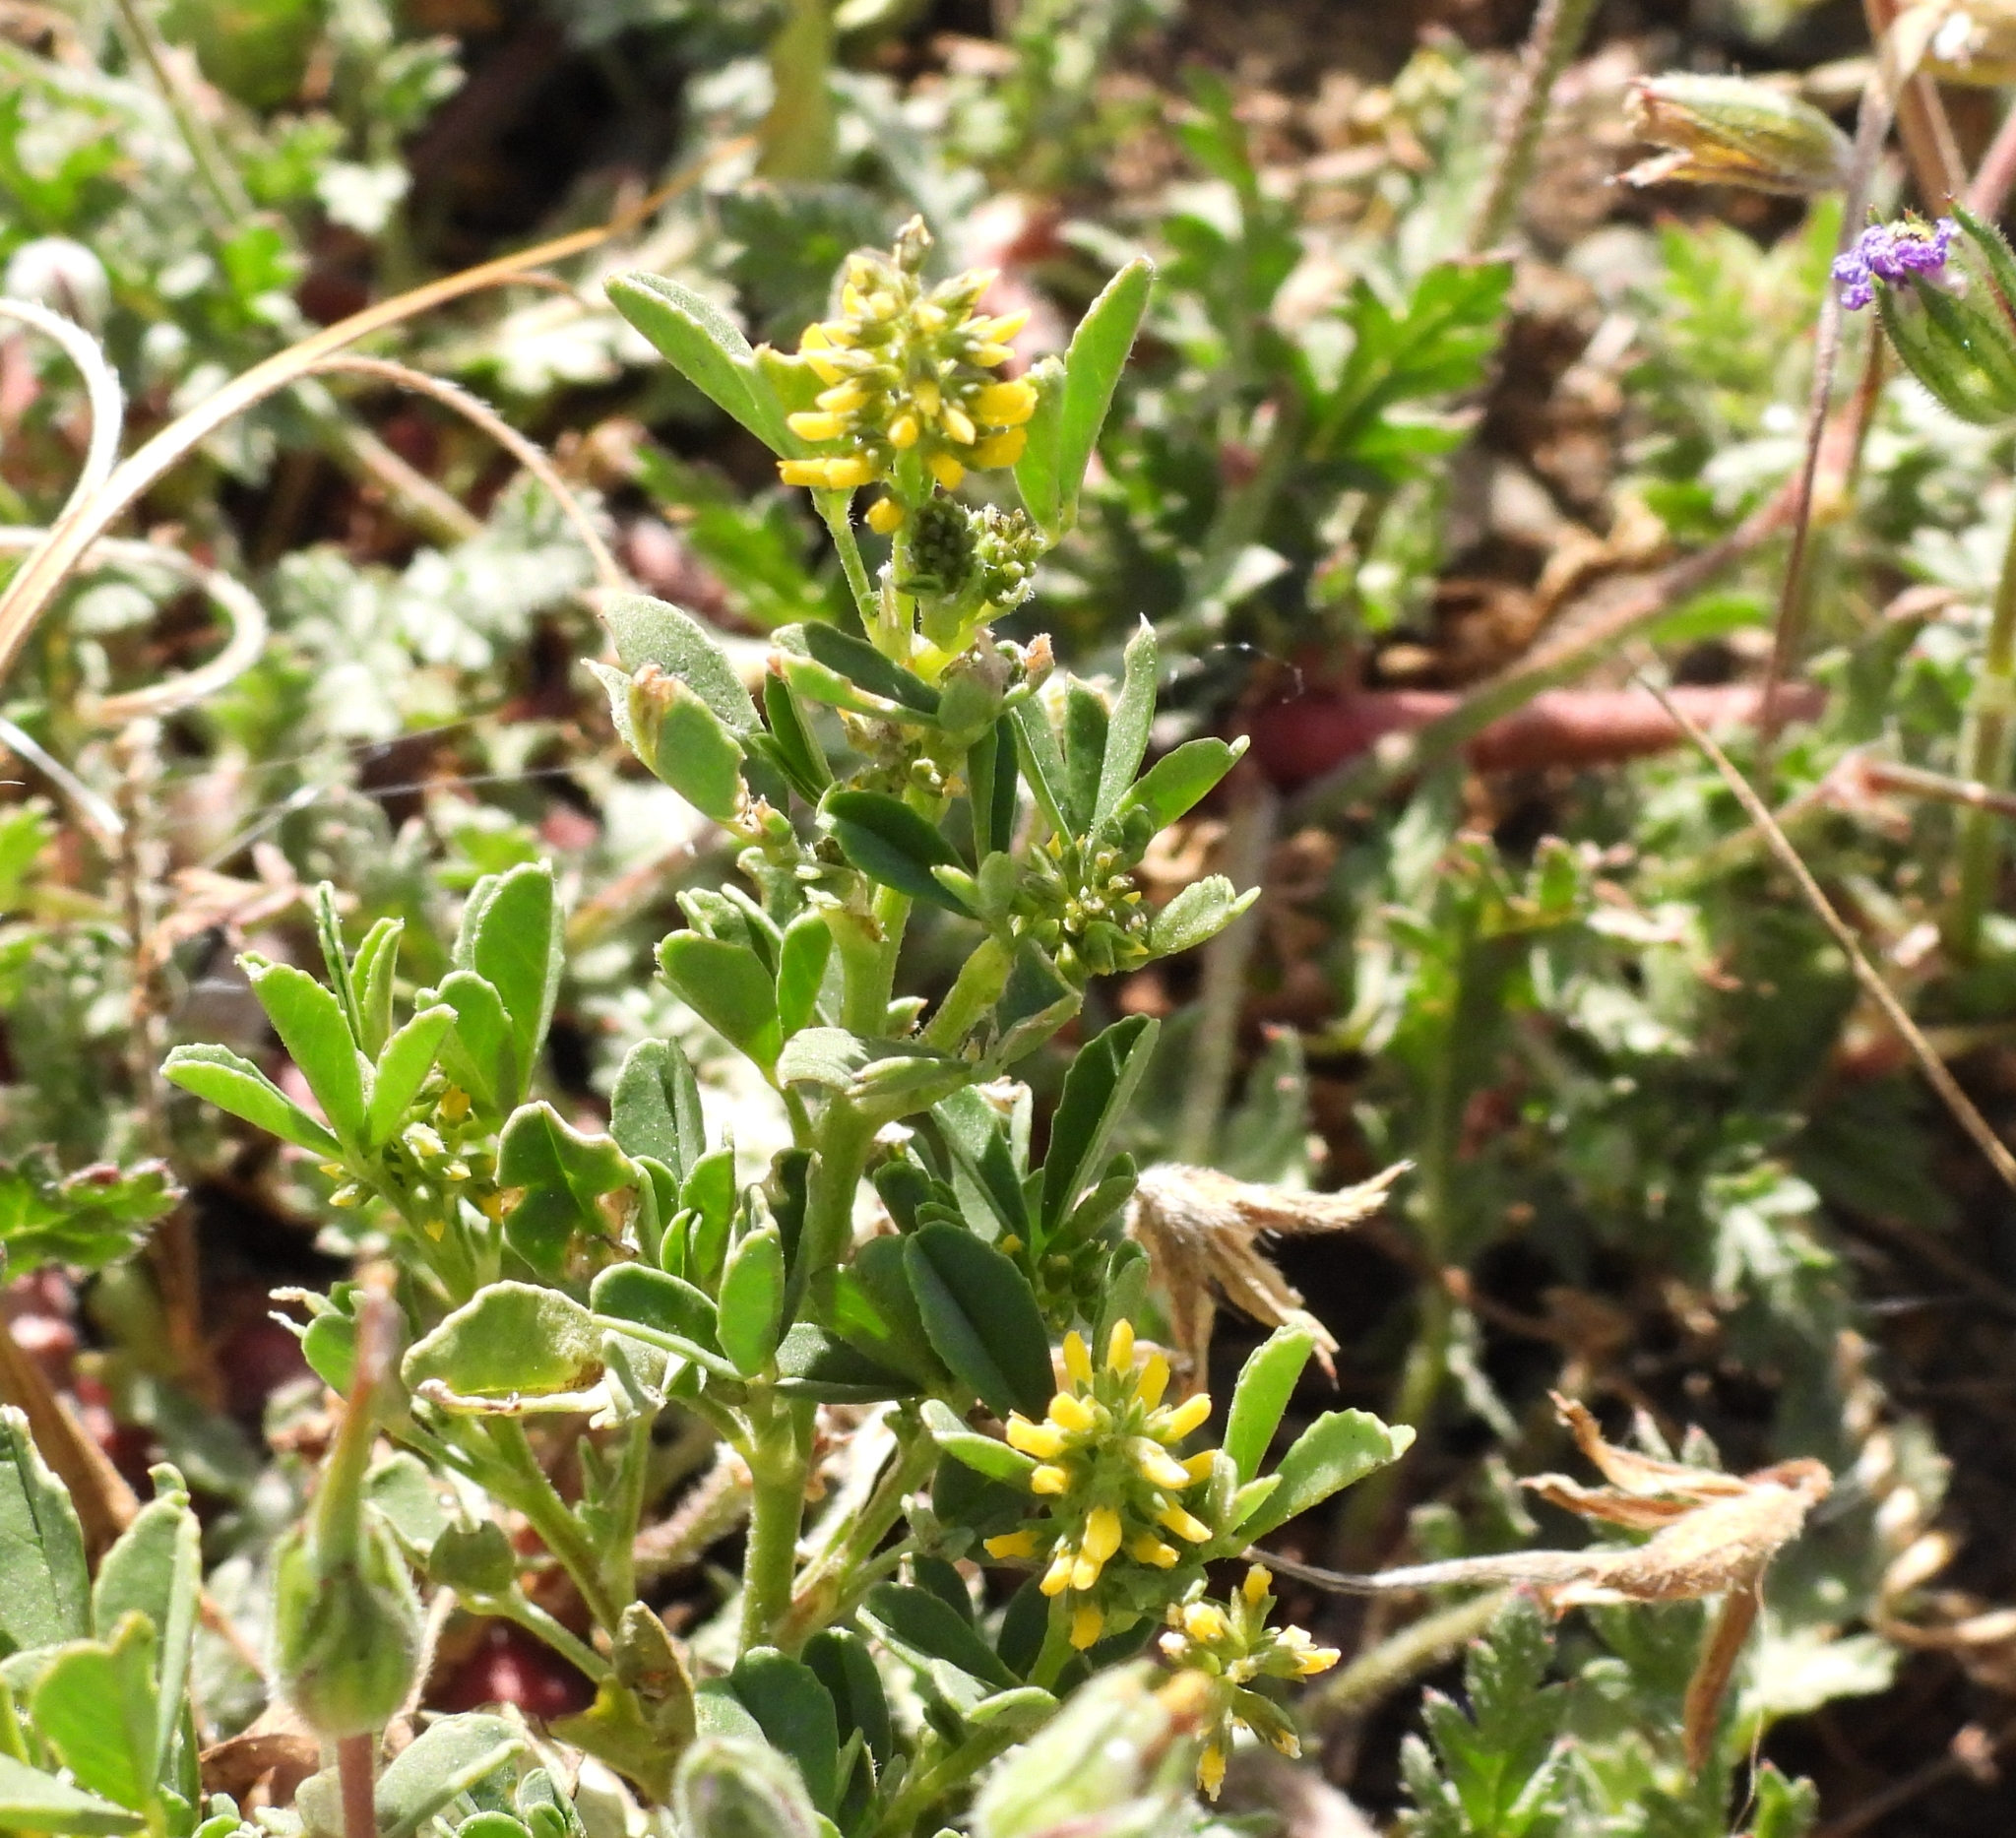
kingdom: Plantae
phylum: Tracheophyta
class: Magnoliopsida
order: Fabales
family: Fabaceae
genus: Melilotus
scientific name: Melilotus indicus
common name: Small melilot
